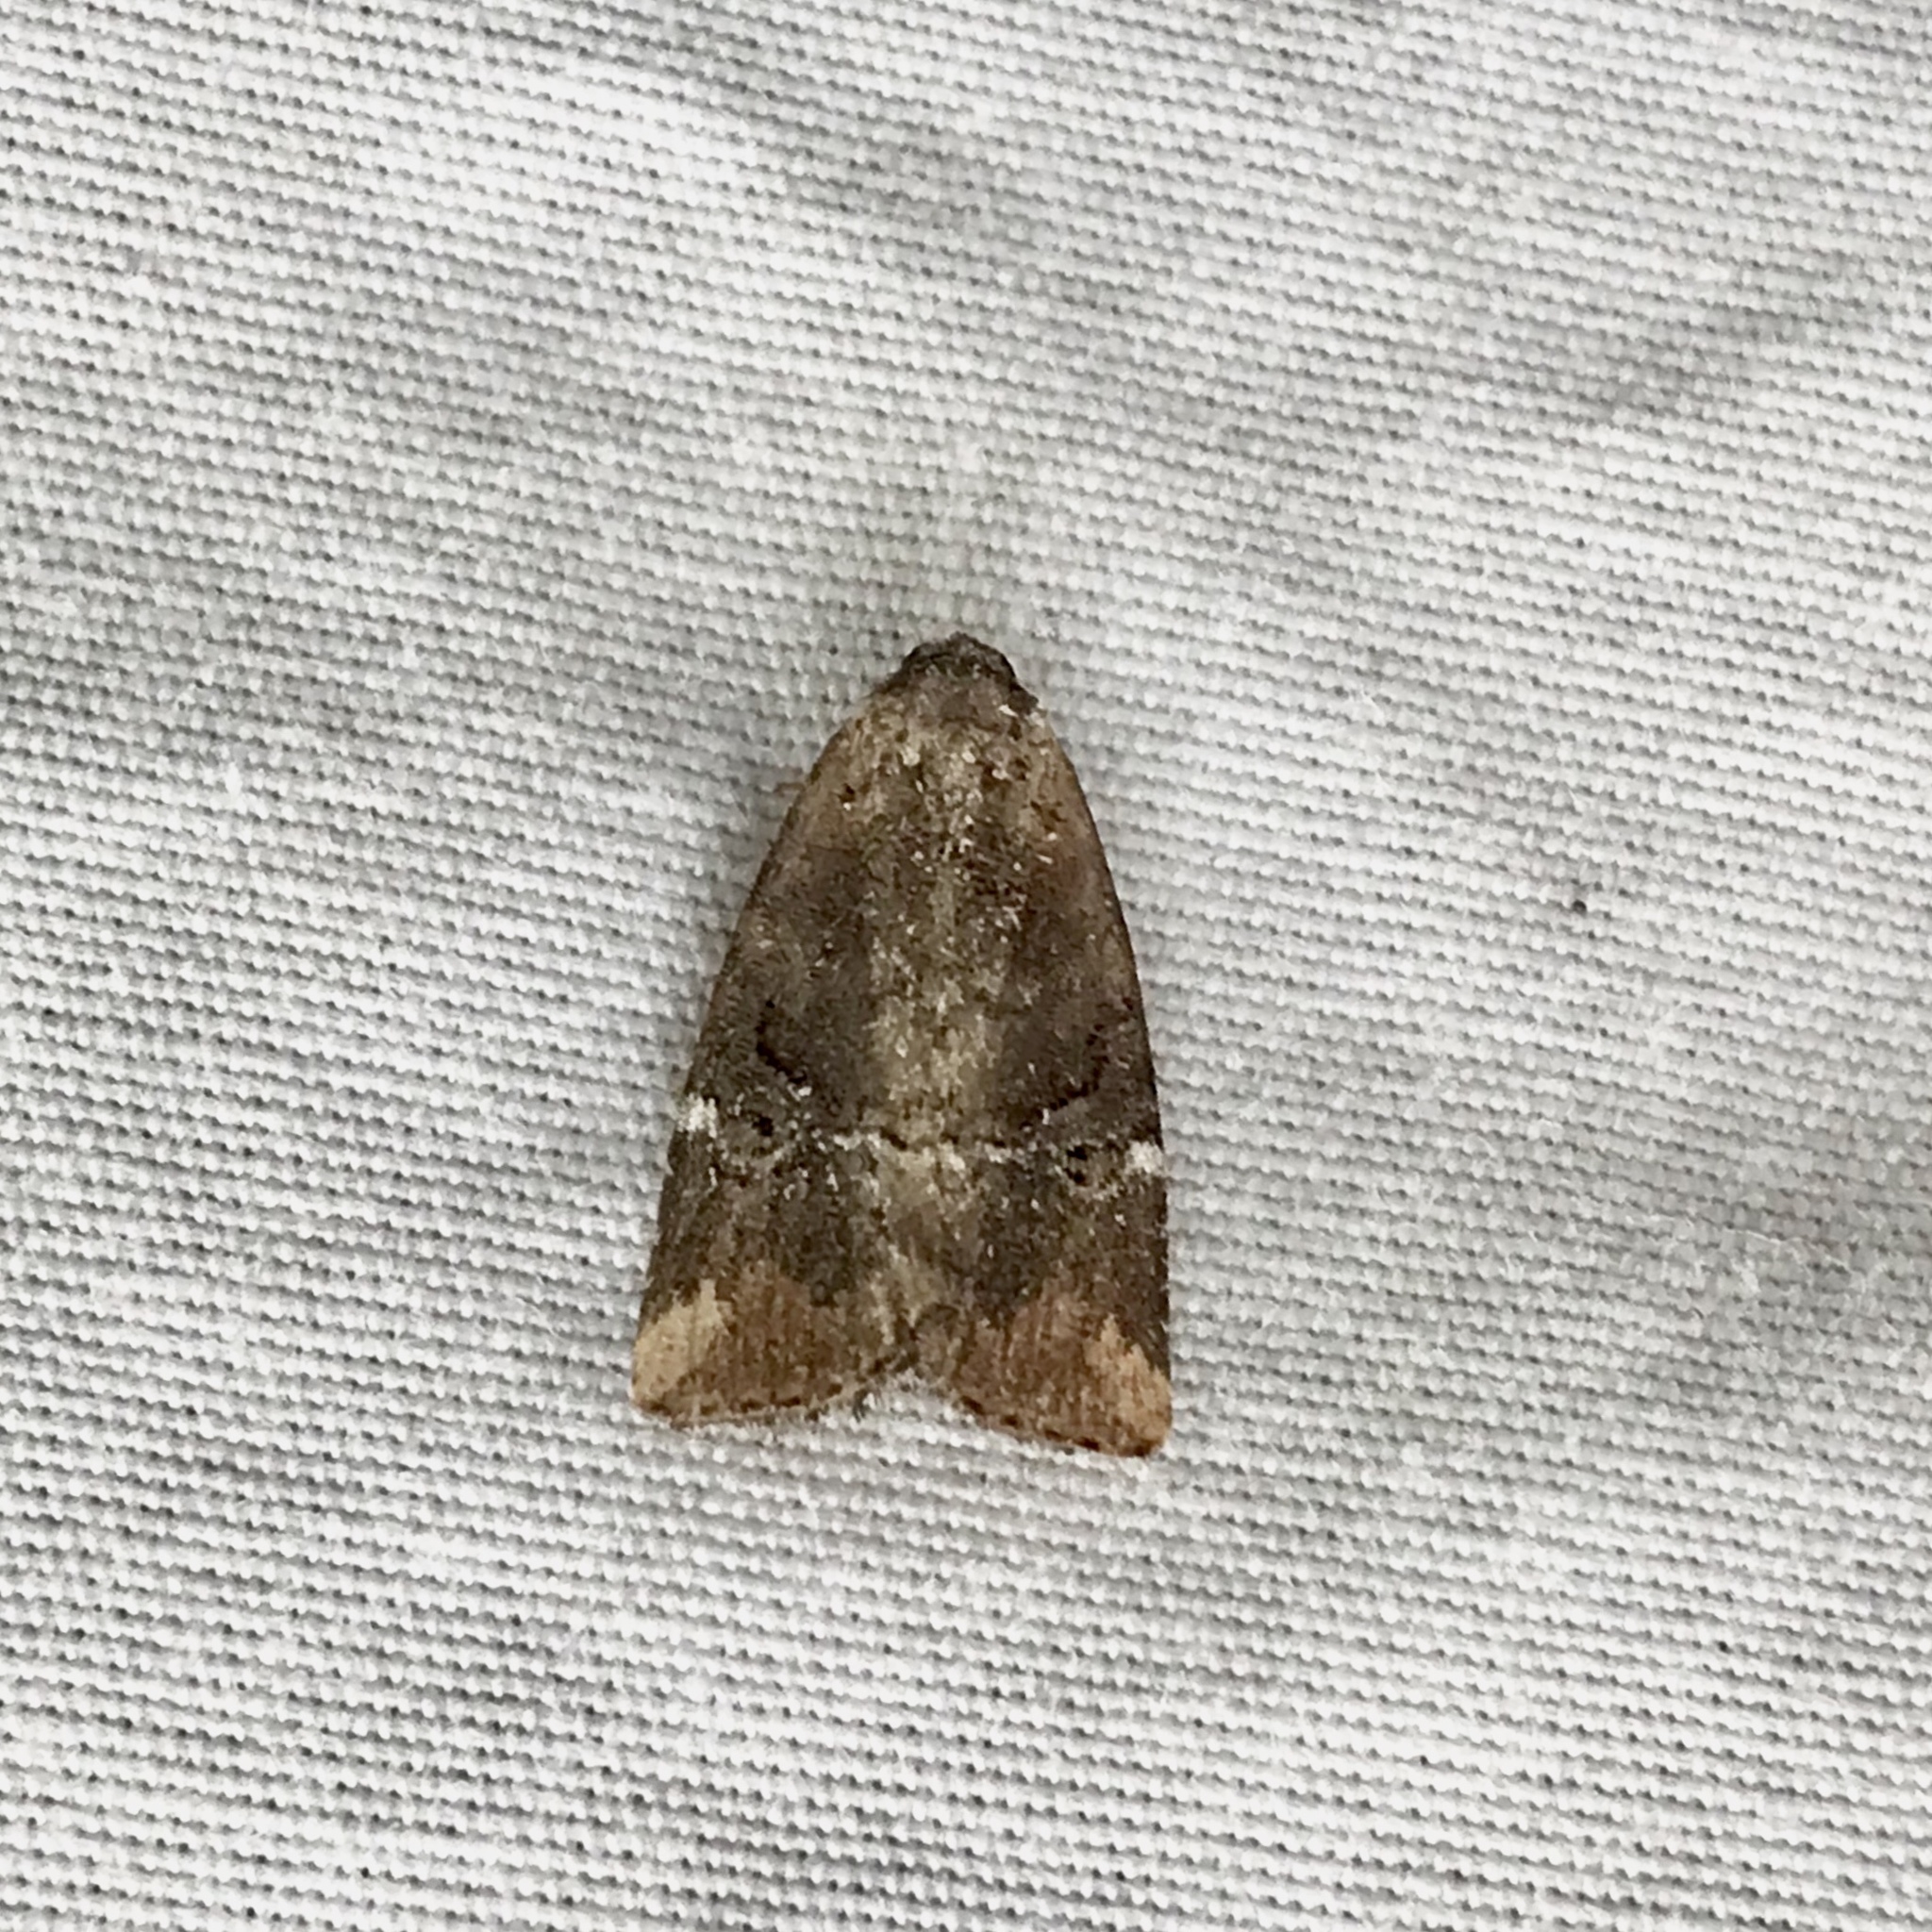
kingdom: Animalia
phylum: Arthropoda
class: Insecta
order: Lepidoptera
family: Noctuidae
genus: Elaphria
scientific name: Elaphria versicolor
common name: Fir harlequin
